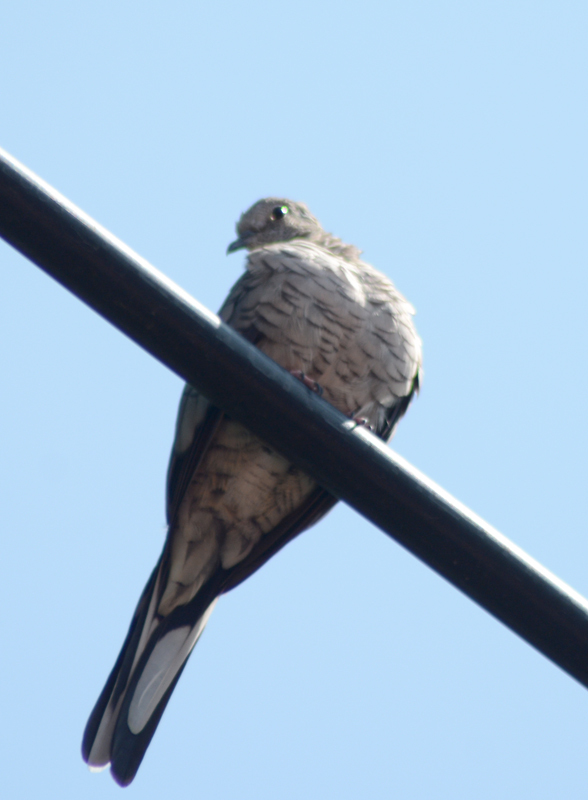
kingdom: Animalia
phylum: Chordata
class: Aves
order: Columbiformes
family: Columbidae
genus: Columbina
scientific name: Columbina inca
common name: Inca dove
